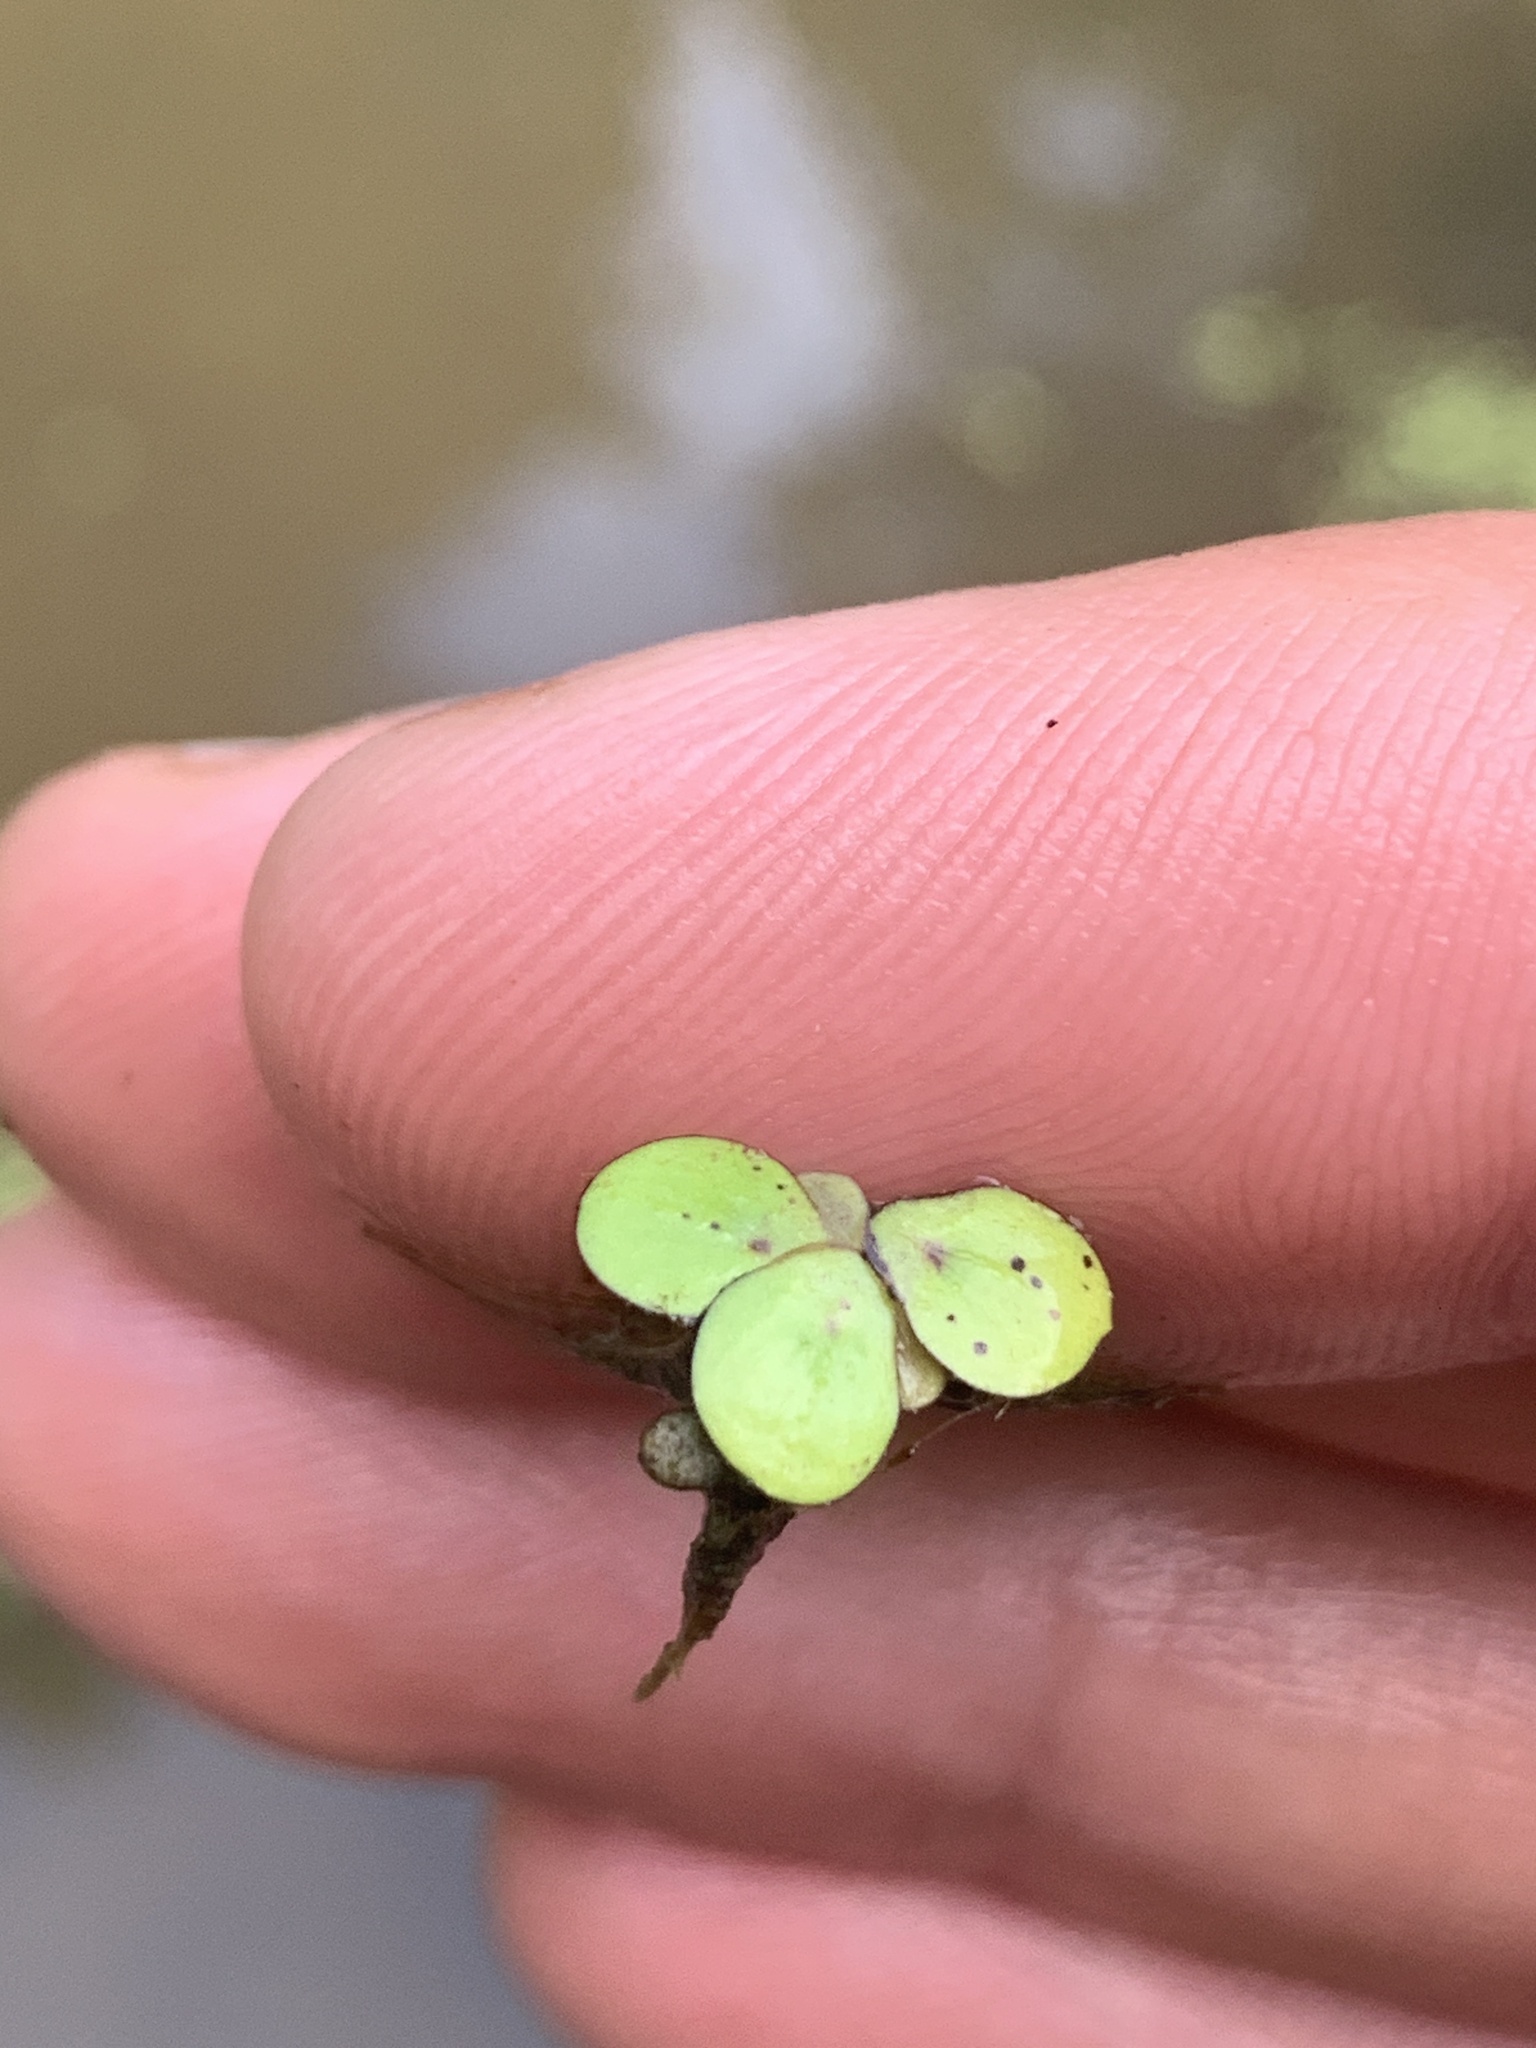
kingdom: Plantae
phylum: Tracheophyta
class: Liliopsida
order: Alismatales
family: Araceae
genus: Spirodela
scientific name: Spirodela polyrhiza
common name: Great duckweed
